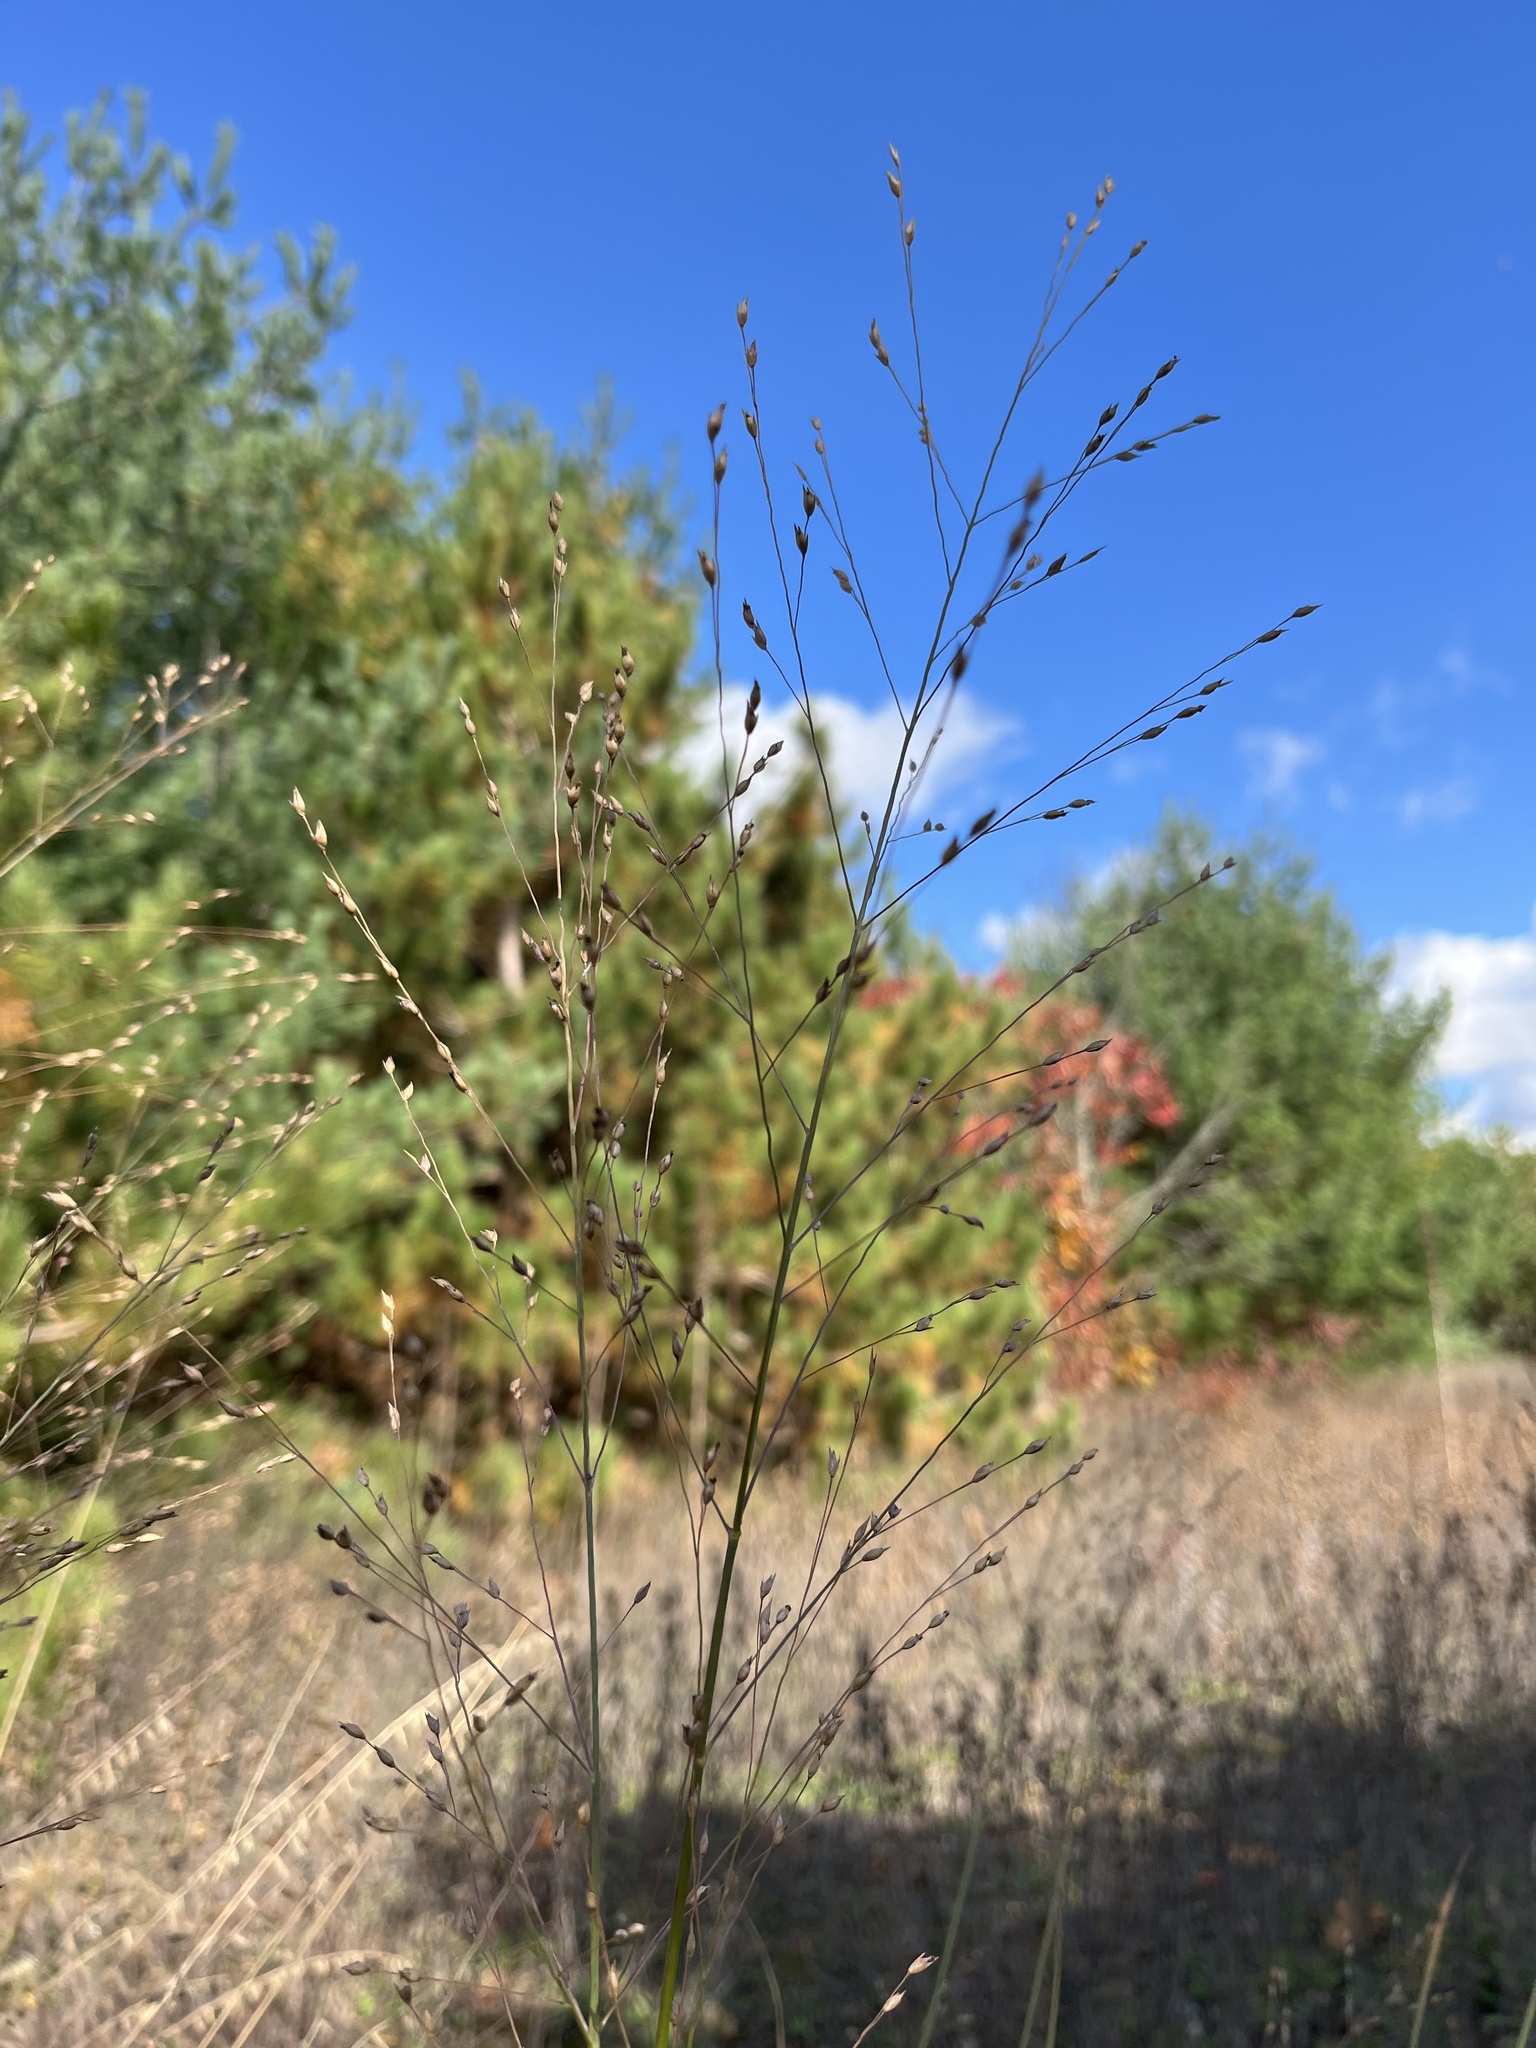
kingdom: Plantae
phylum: Tracheophyta
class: Liliopsida
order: Poales
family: Poaceae
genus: Panicum
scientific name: Panicum virgatum
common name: Switchgrass
